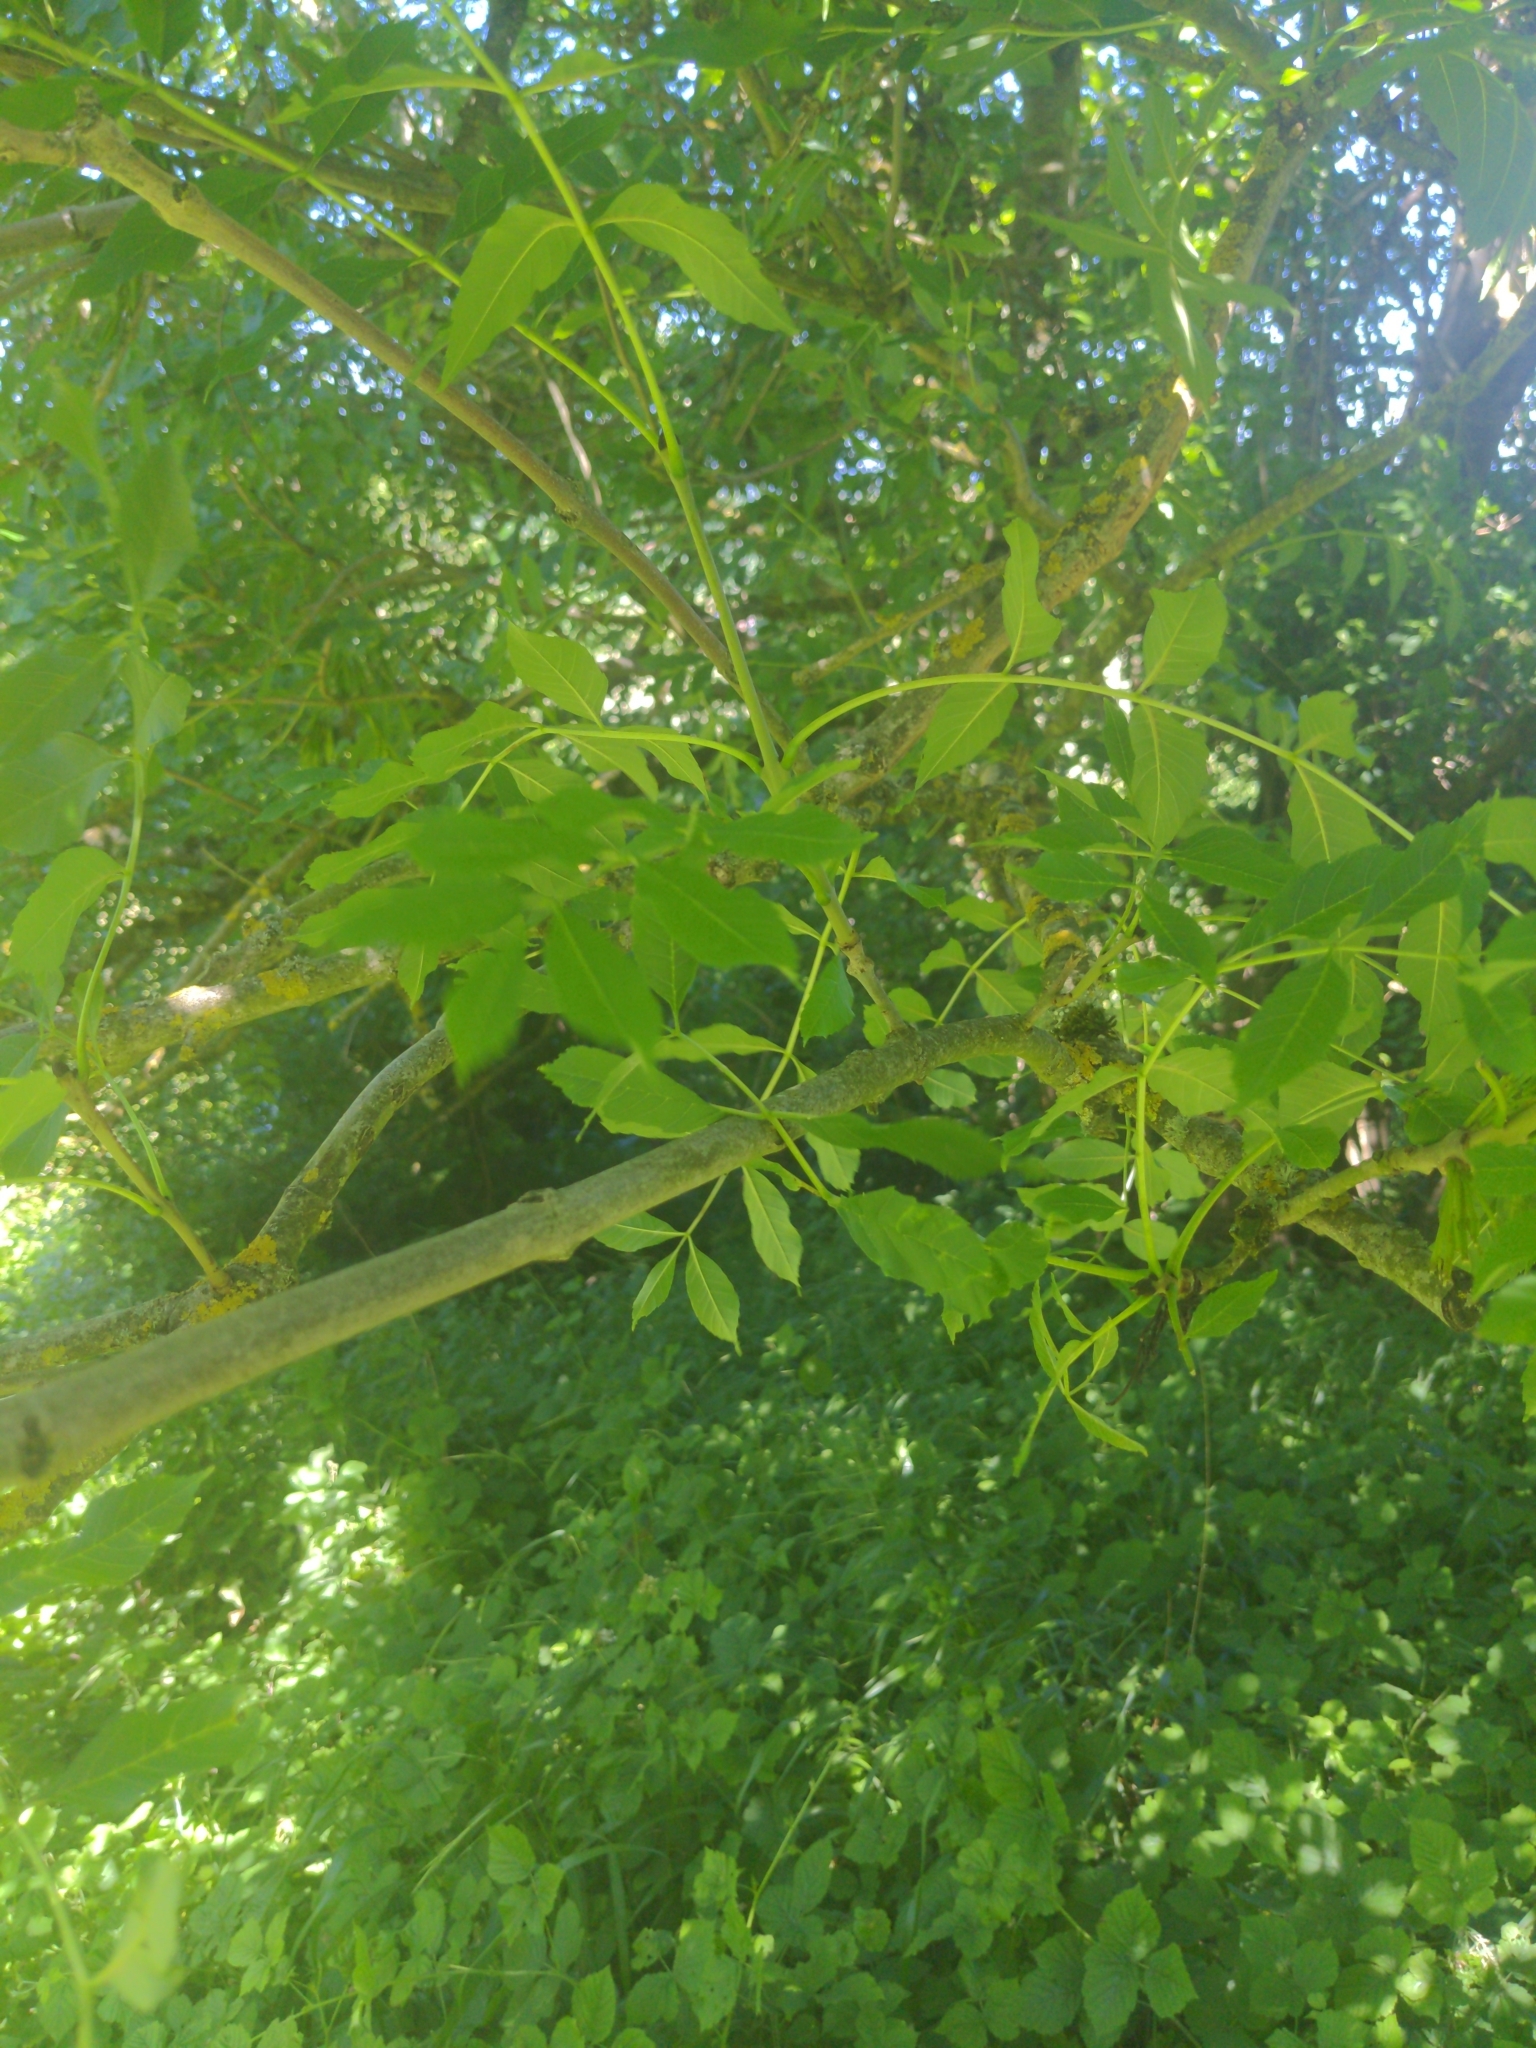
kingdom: Plantae
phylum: Tracheophyta
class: Magnoliopsida
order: Lamiales
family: Oleaceae
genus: Fraxinus
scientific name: Fraxinus excelsior
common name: European ash
